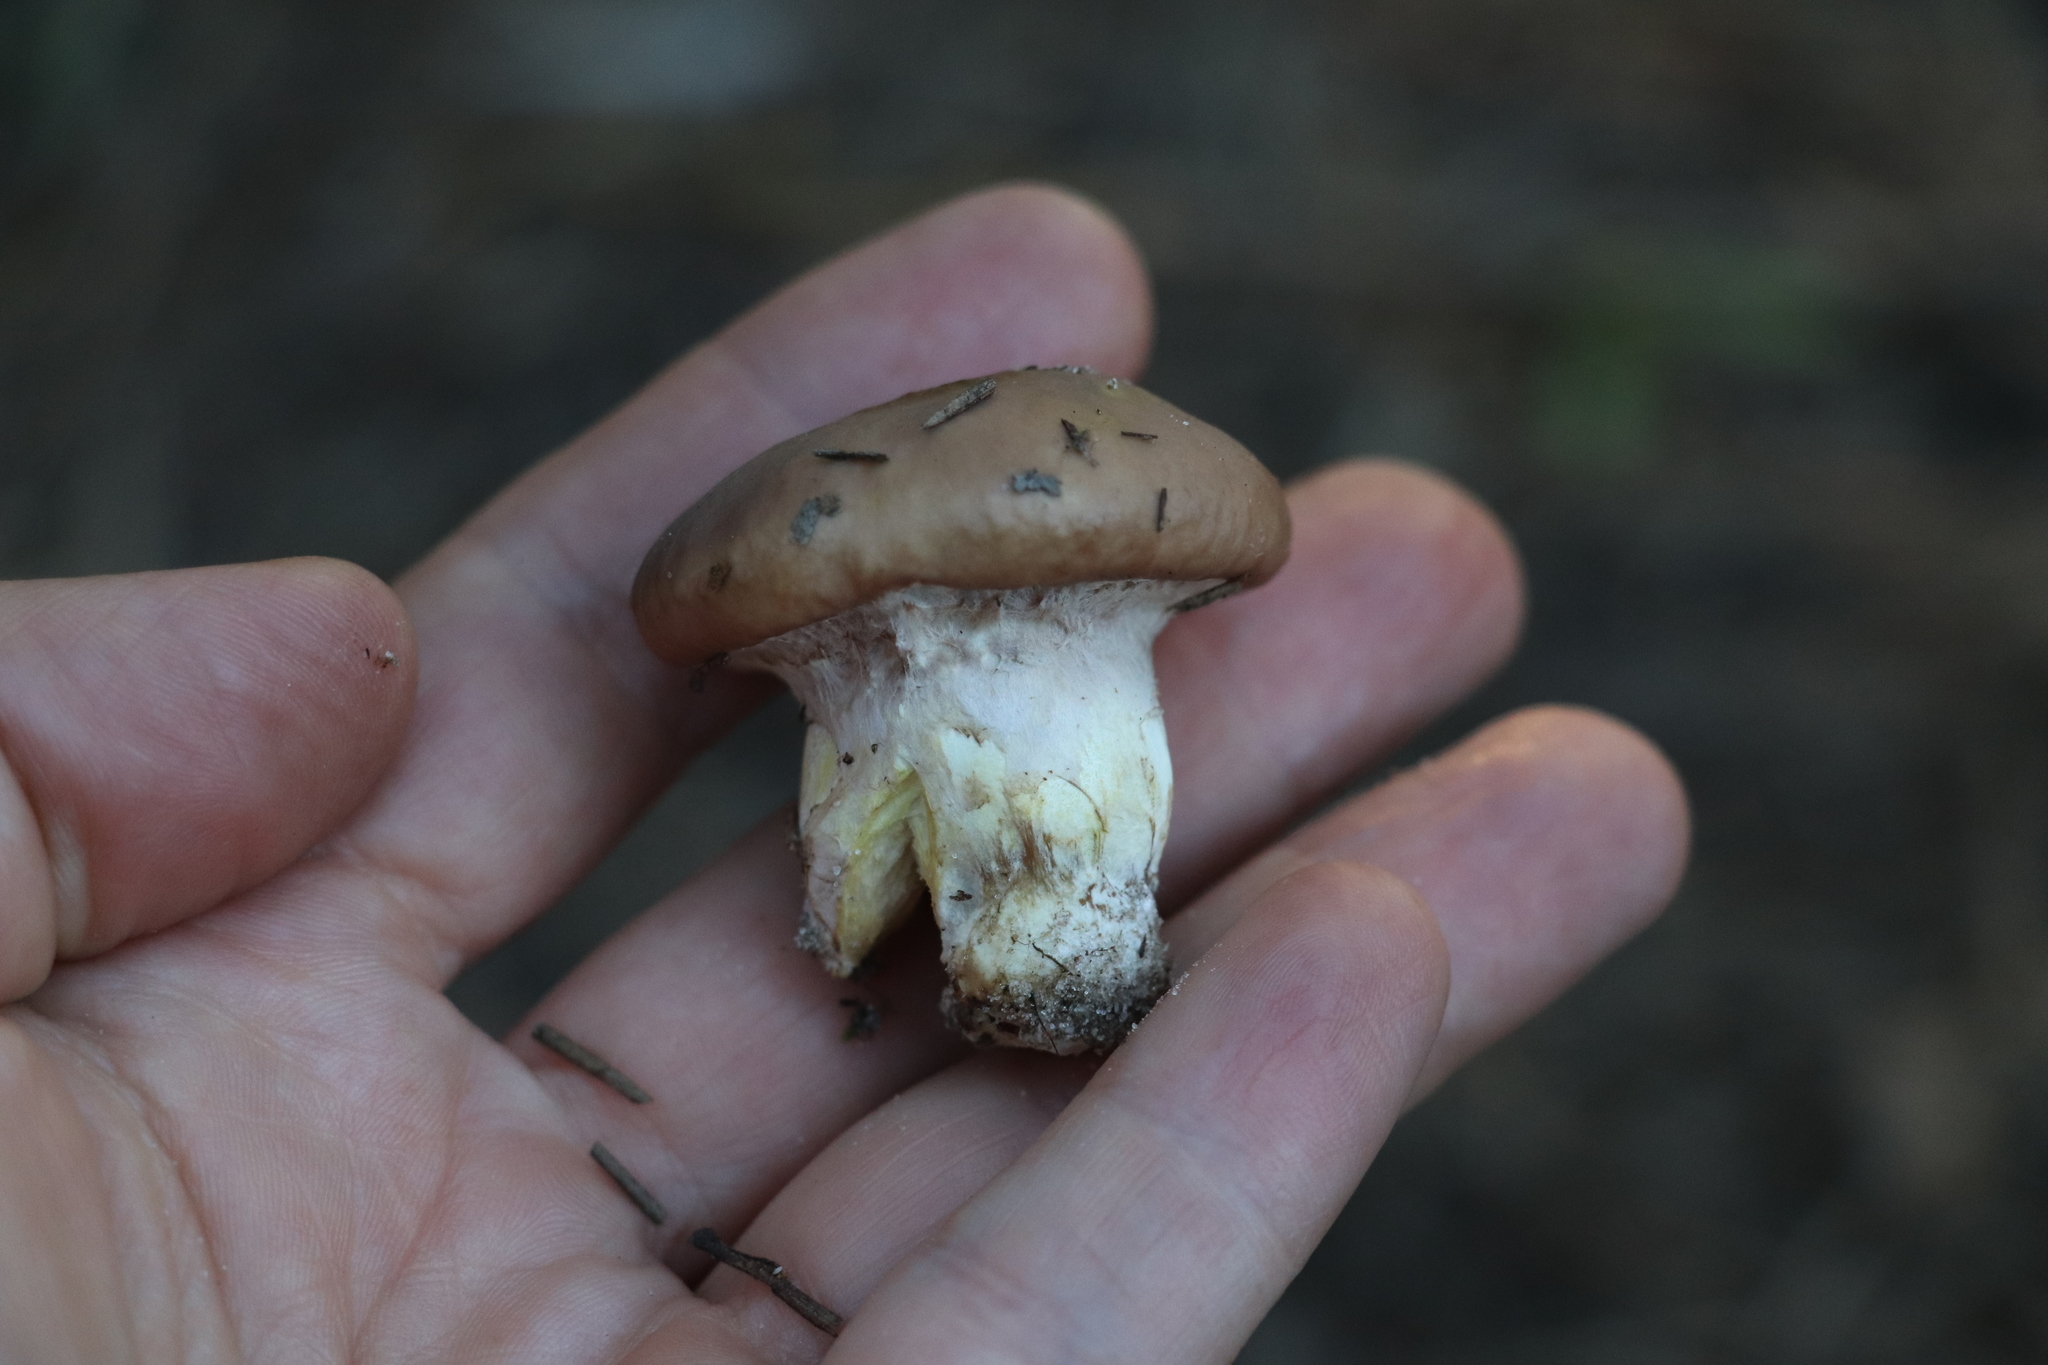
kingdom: Fungi
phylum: Basidiomycota
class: Agaricomycetes
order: Boletales
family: Suillaceae
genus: Suillus
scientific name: Suillus luteus
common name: Slippery jack
